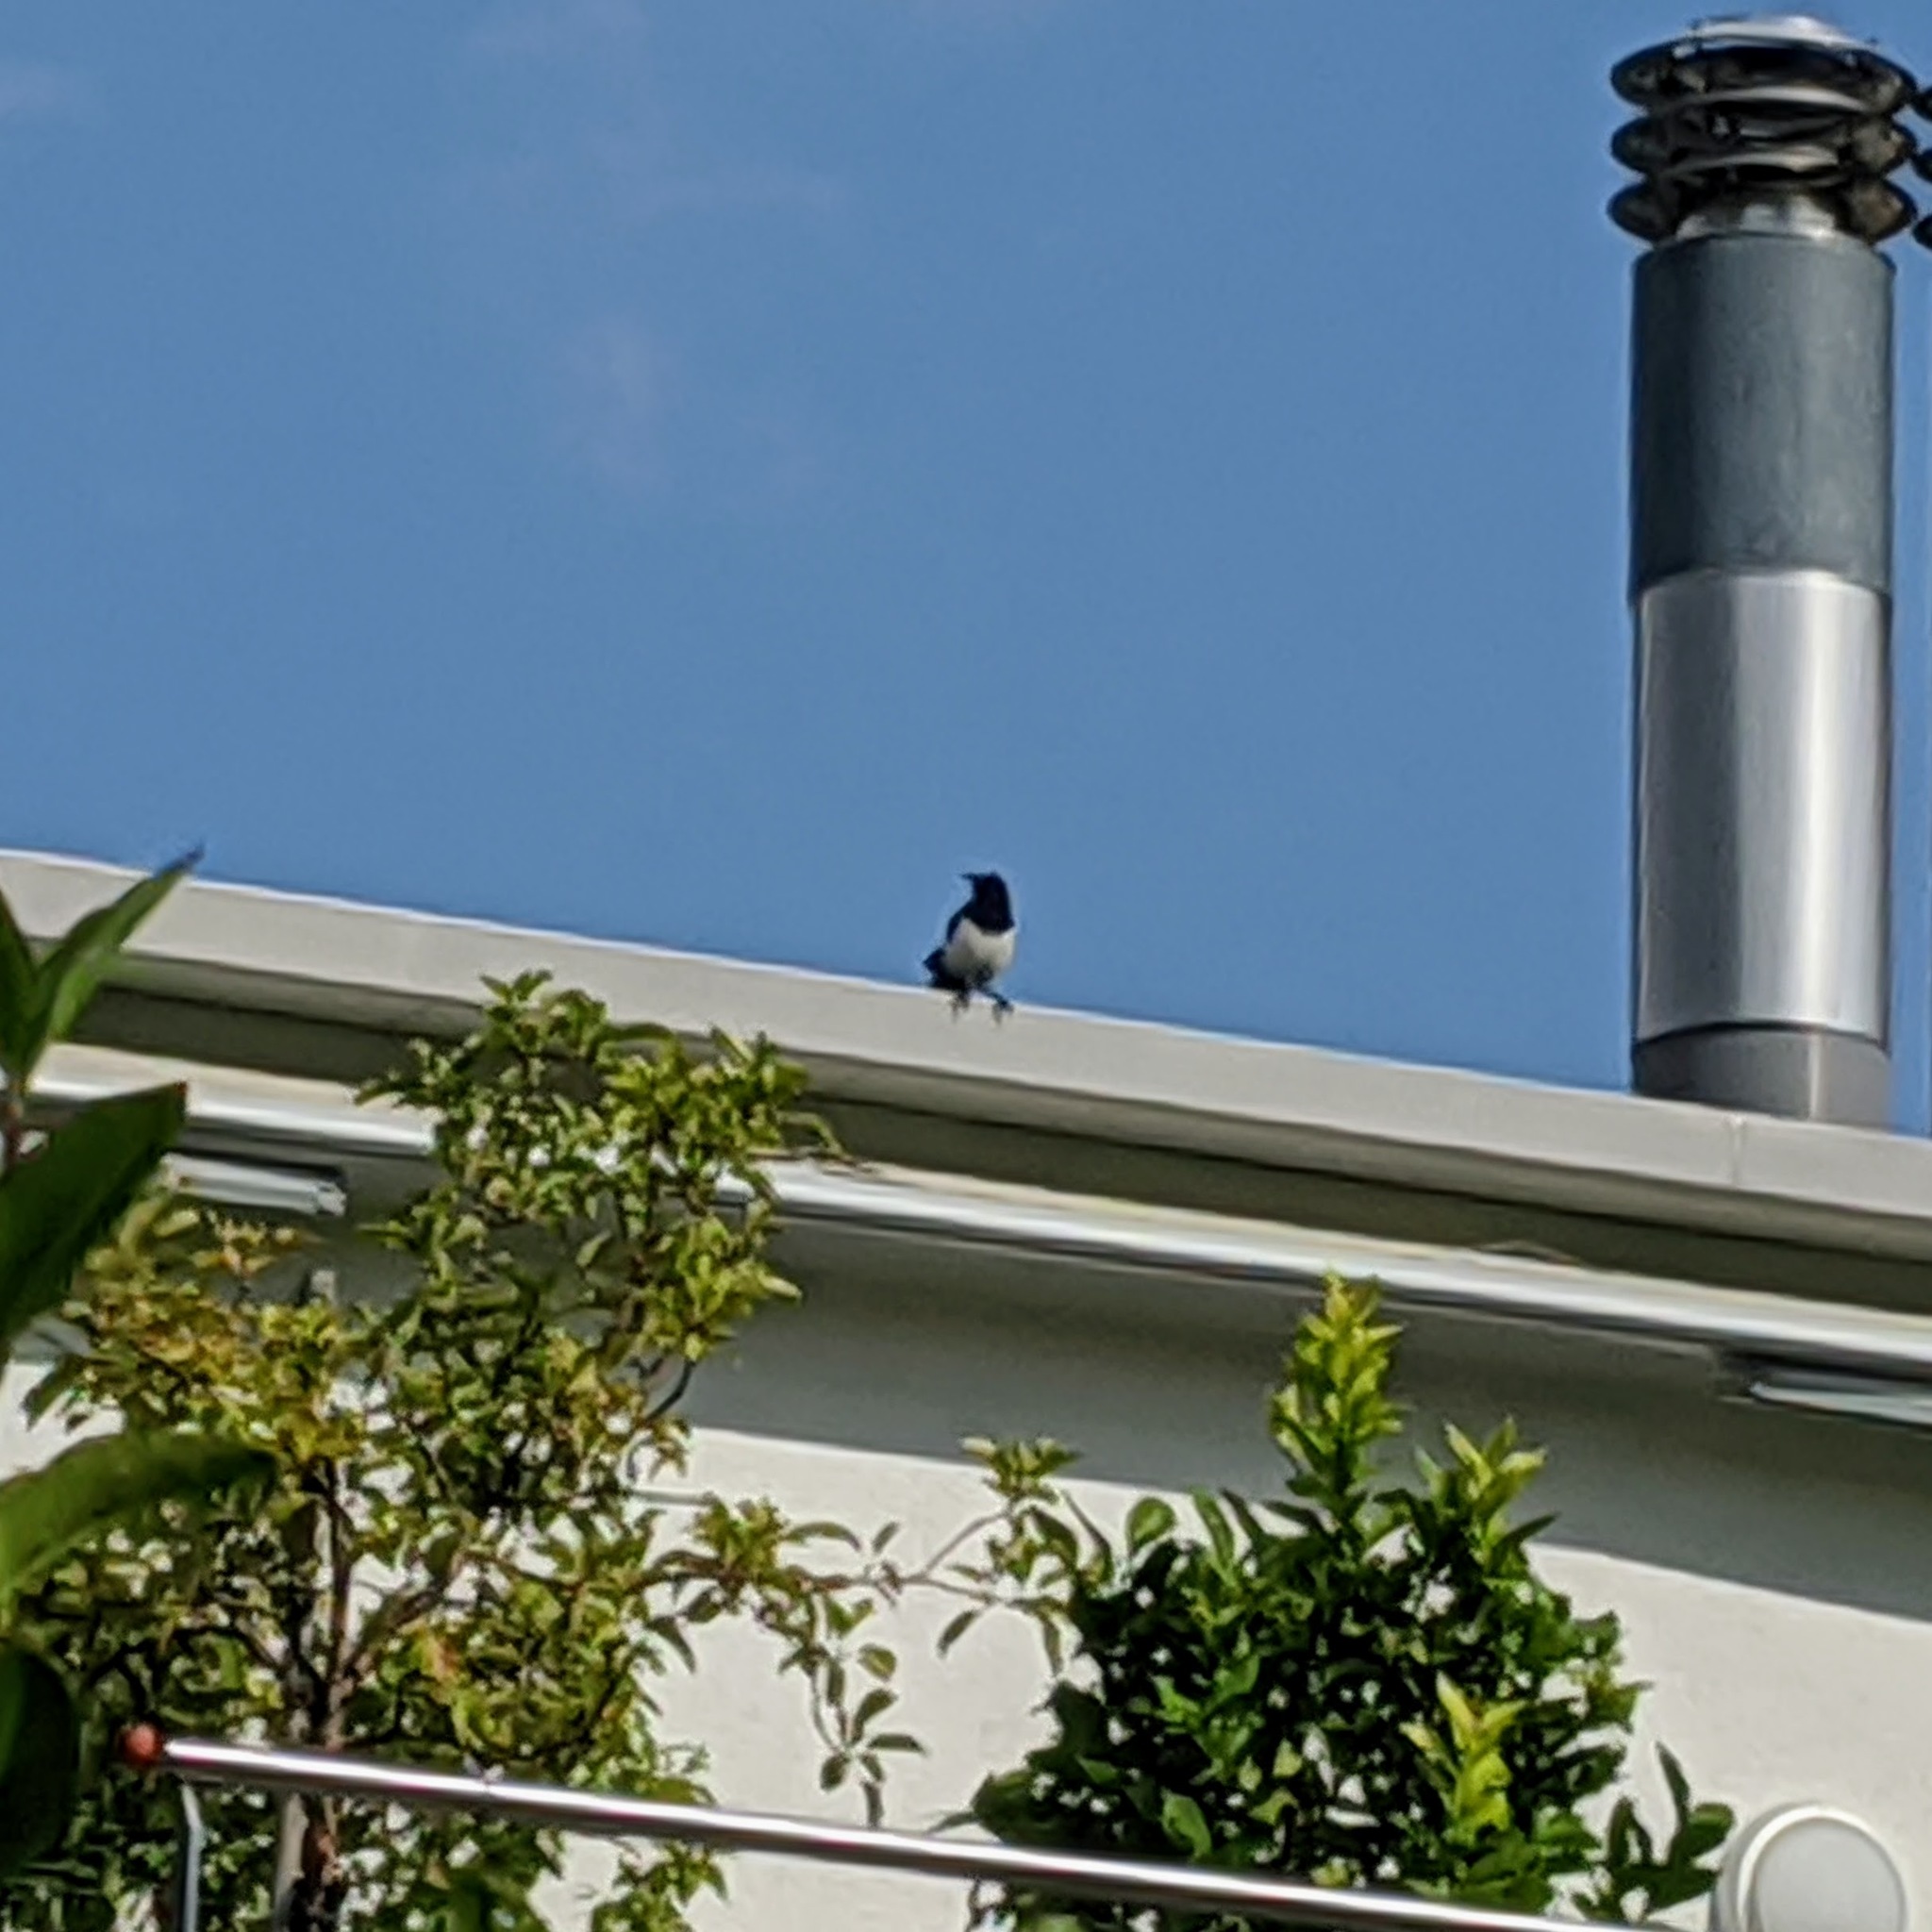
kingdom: Animalia
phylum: Chordata
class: Aves
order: Passeriformes
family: Corvidae
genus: Pica
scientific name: Pica pica
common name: Eurasian magpie
